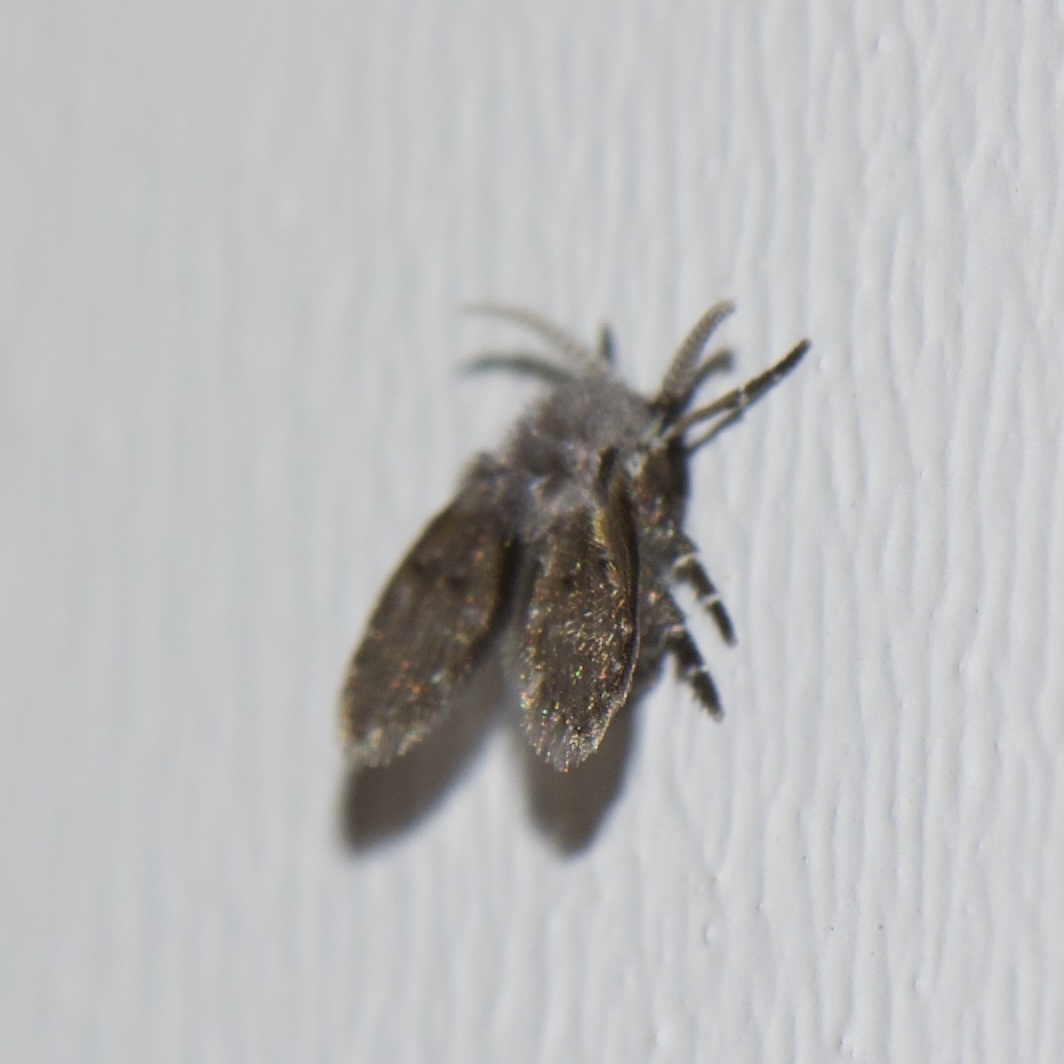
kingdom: Animalia
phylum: Arthropoda
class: Insecta
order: Diptera
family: Psychodidae
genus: Clogmia
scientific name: Clogmia albipunctatus
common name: White-spotted moth fly
